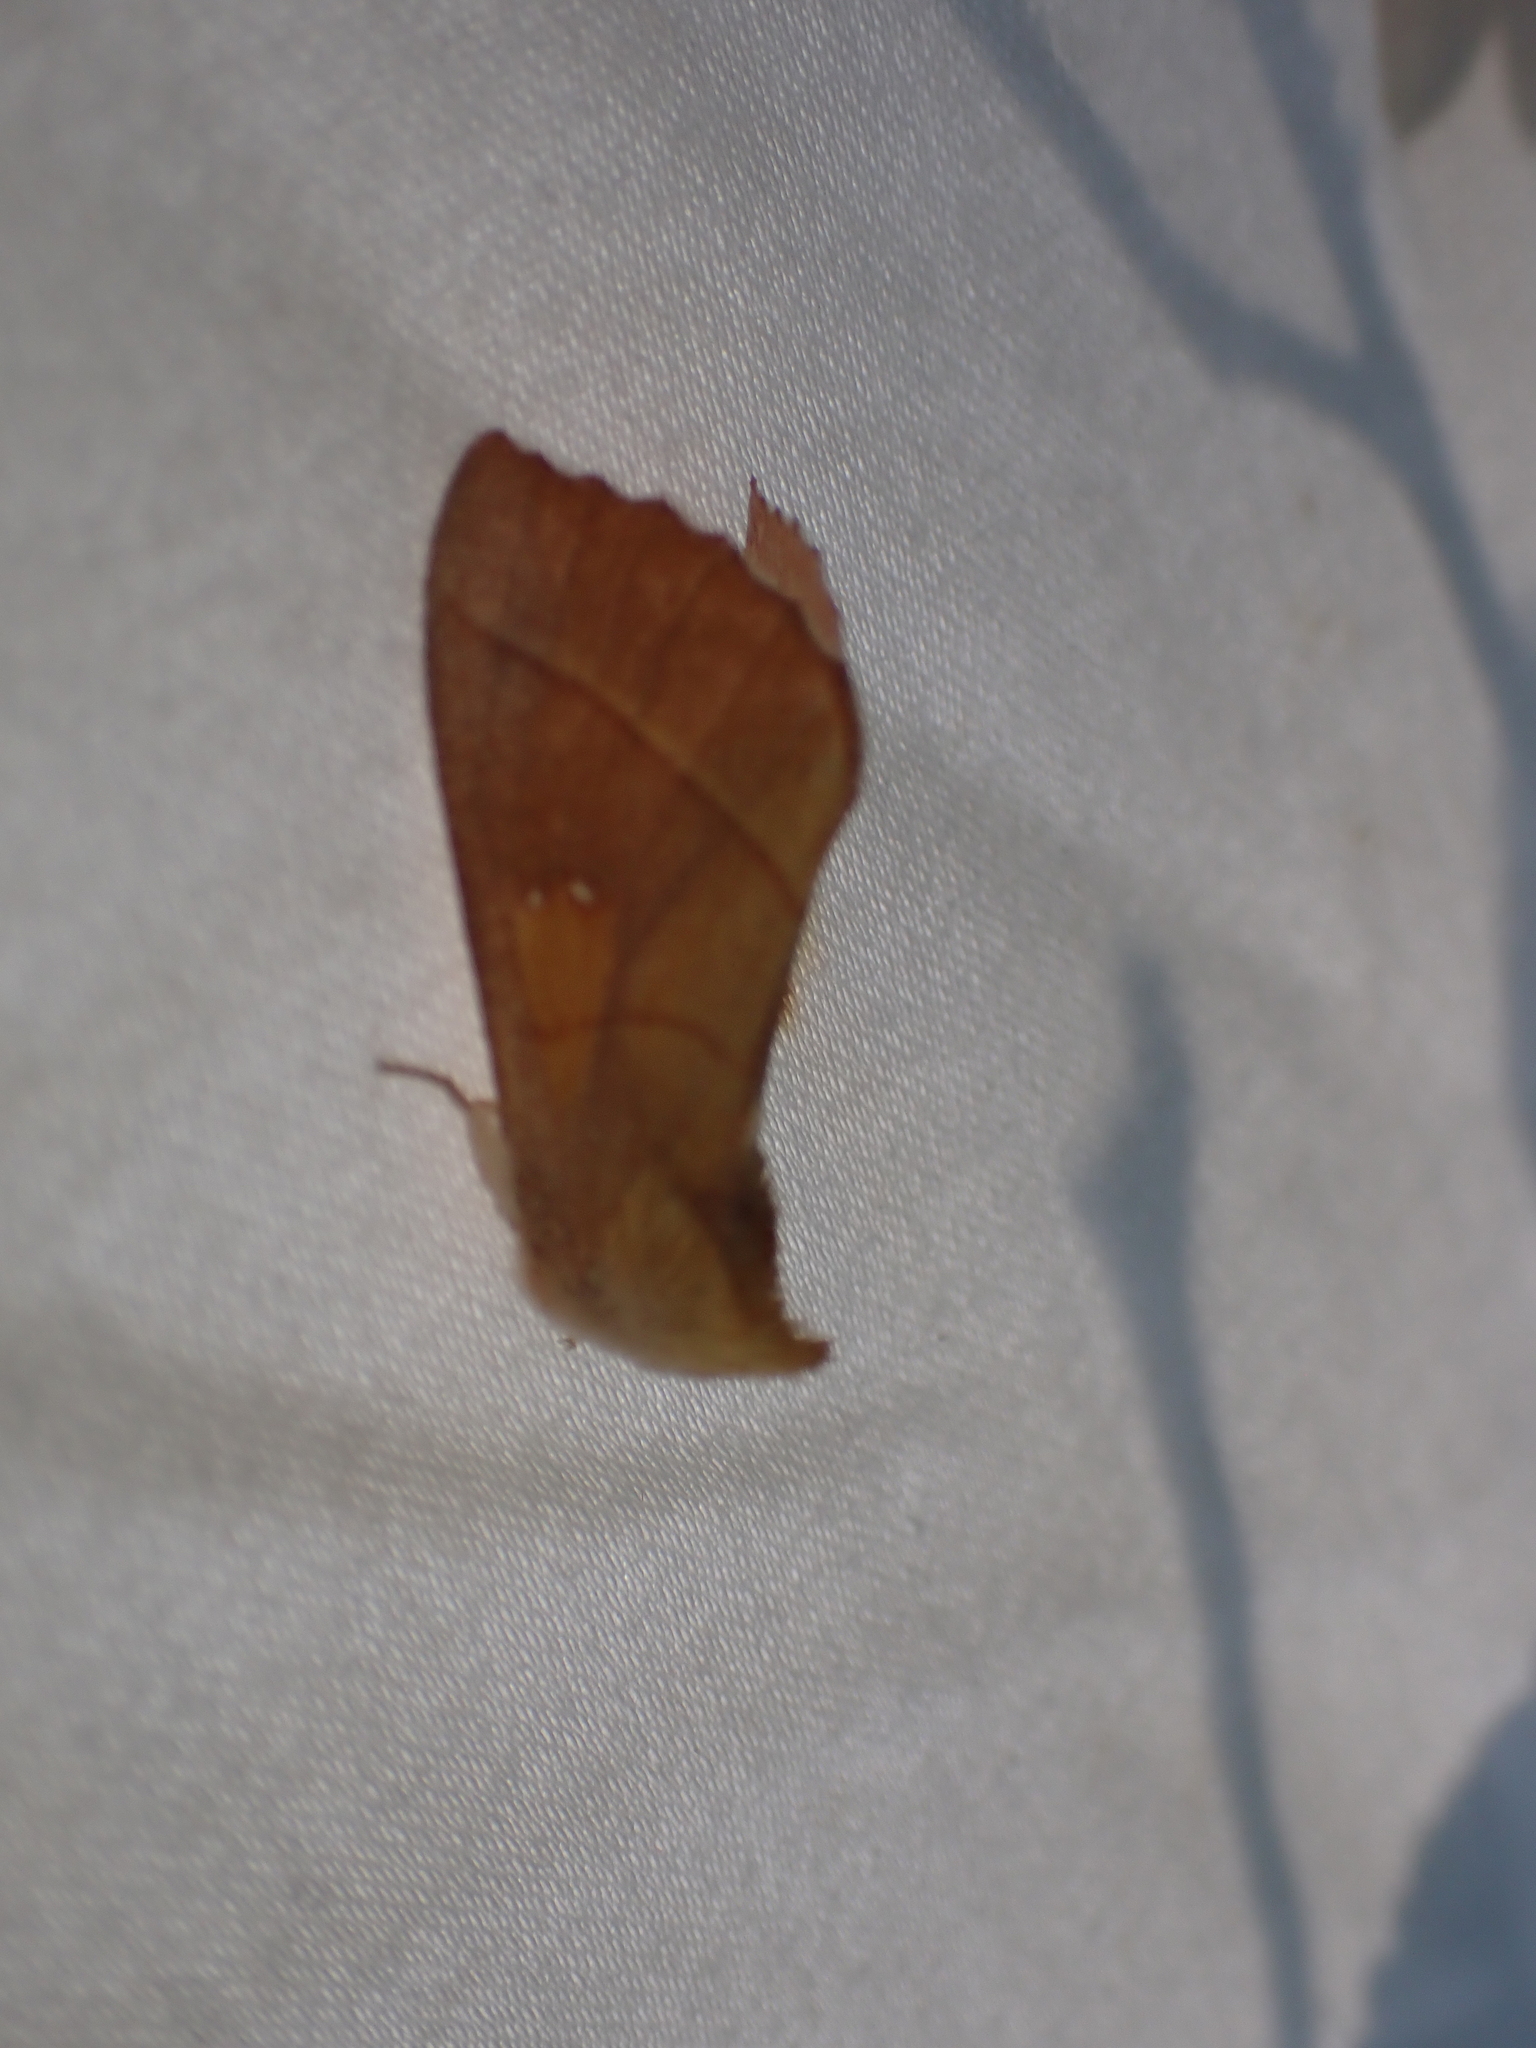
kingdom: Animalia
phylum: Arthropoda
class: Insecta
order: Lepidoptera
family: Notodontidae
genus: Nadata
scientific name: Nadata gibbosa
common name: White-dotted prominent
